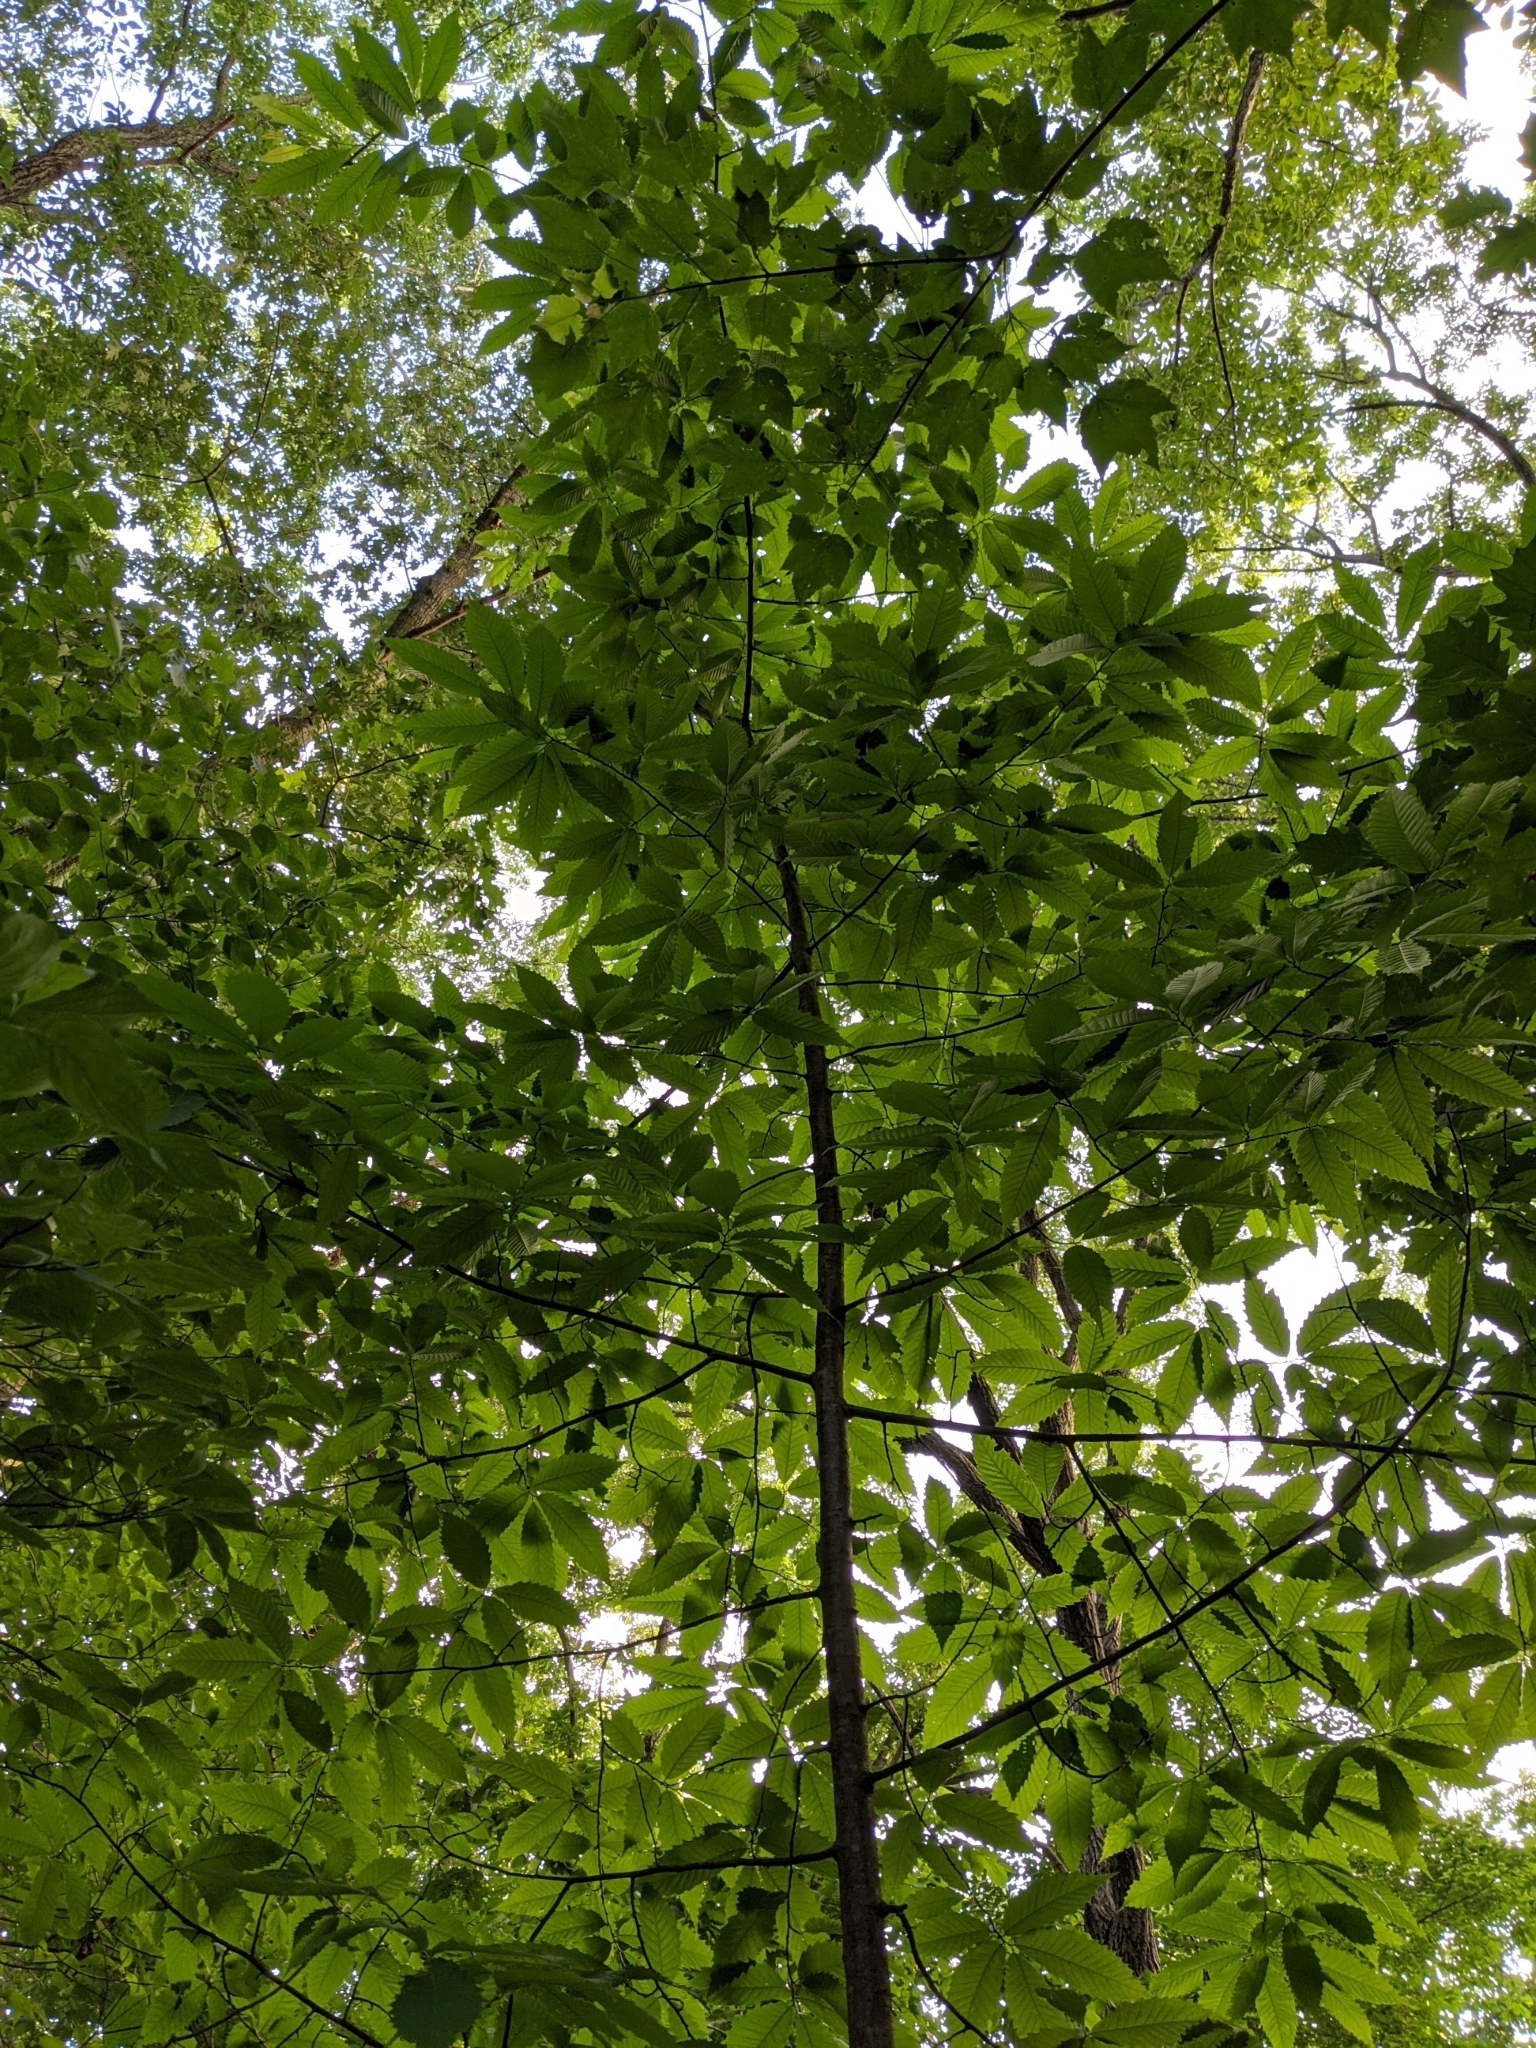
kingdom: Plantae
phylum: Tracheophyta
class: Magnoliopsida
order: Fagales
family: Fagaceae
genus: Castanea
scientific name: Castanea dentata
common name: American chestnut
